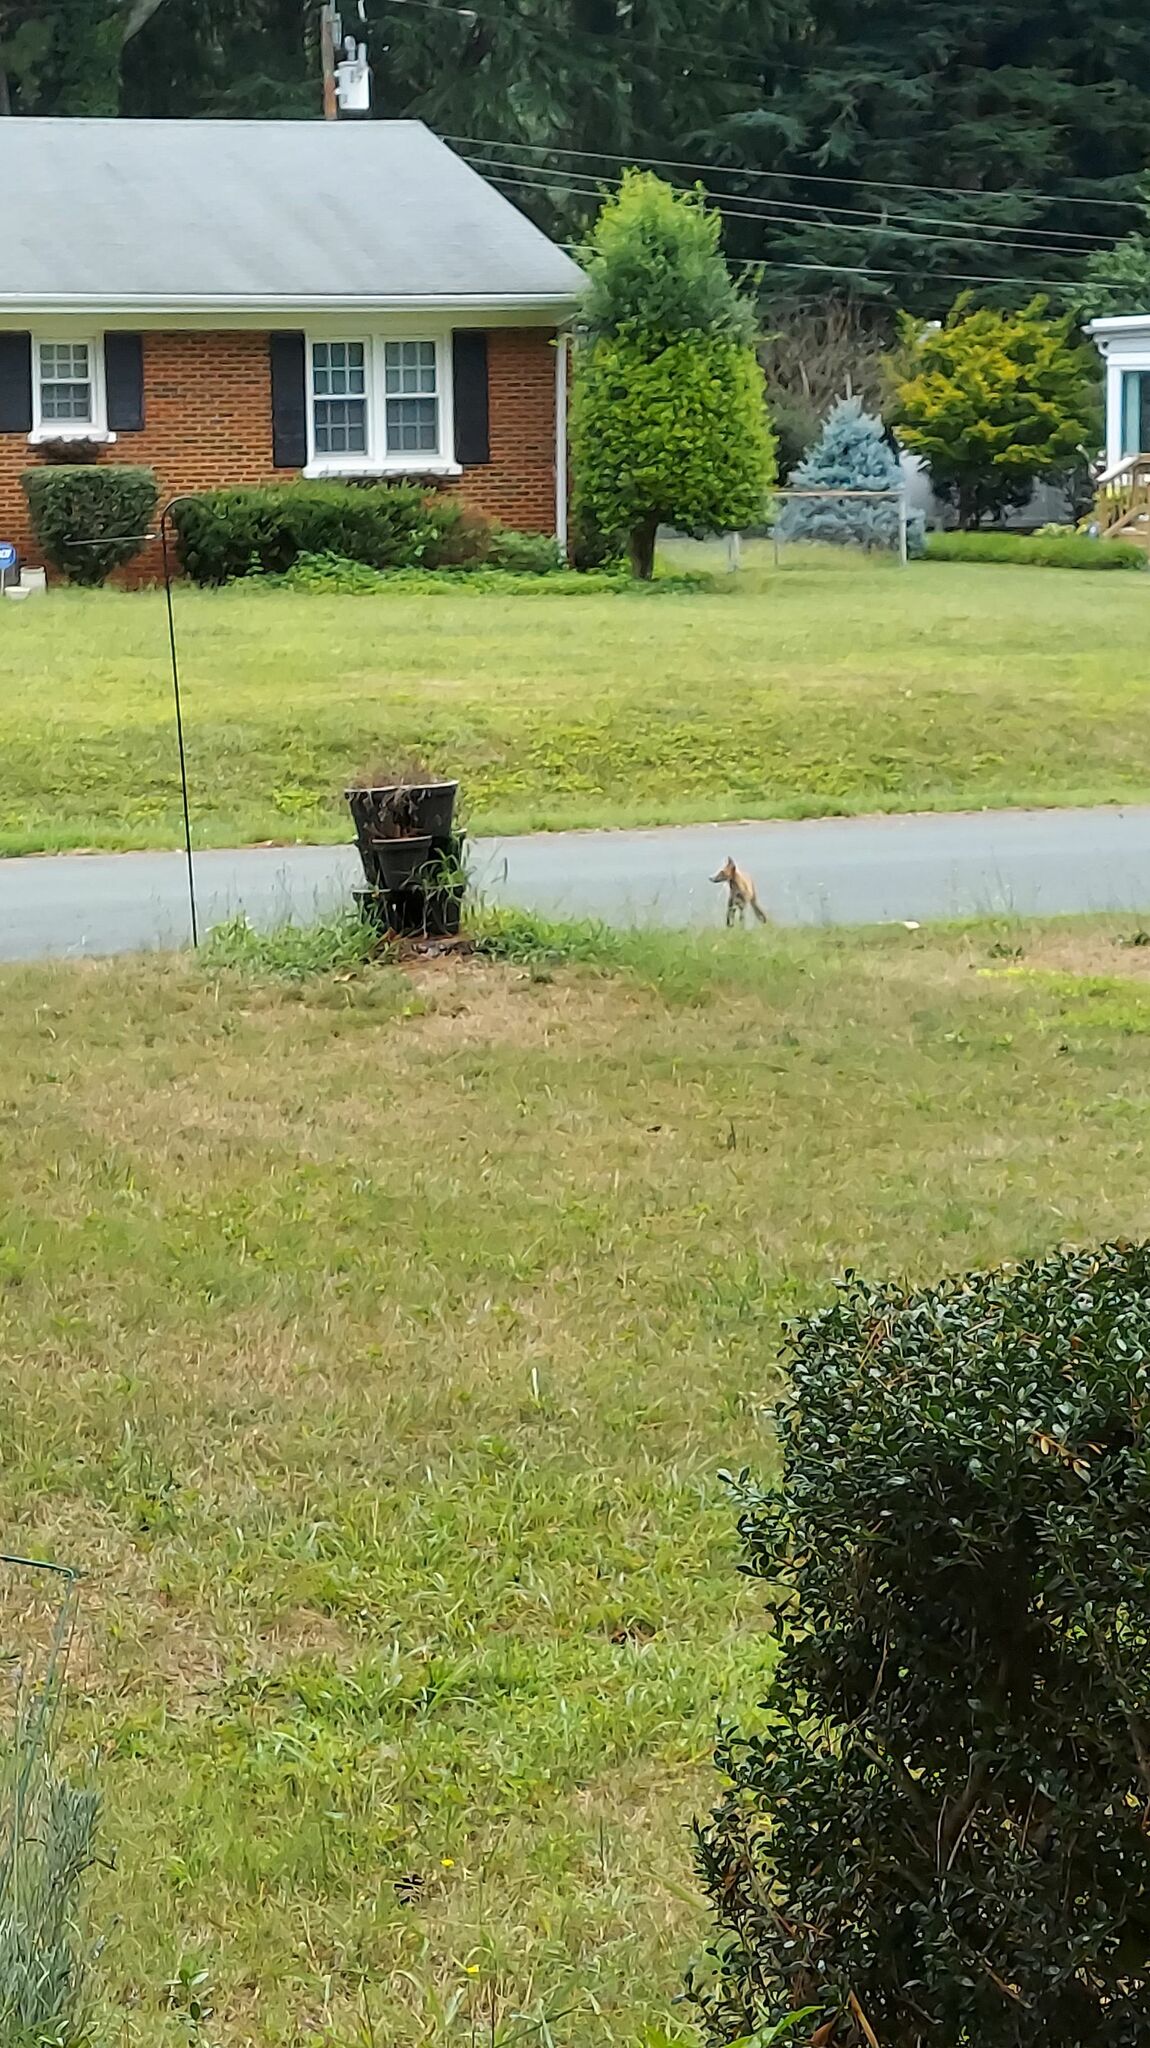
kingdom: Animalia
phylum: Chordata
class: Mammalia
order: Carnivora
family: Canidae
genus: Vulpes
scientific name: Vulpes vulpes
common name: Red fox
